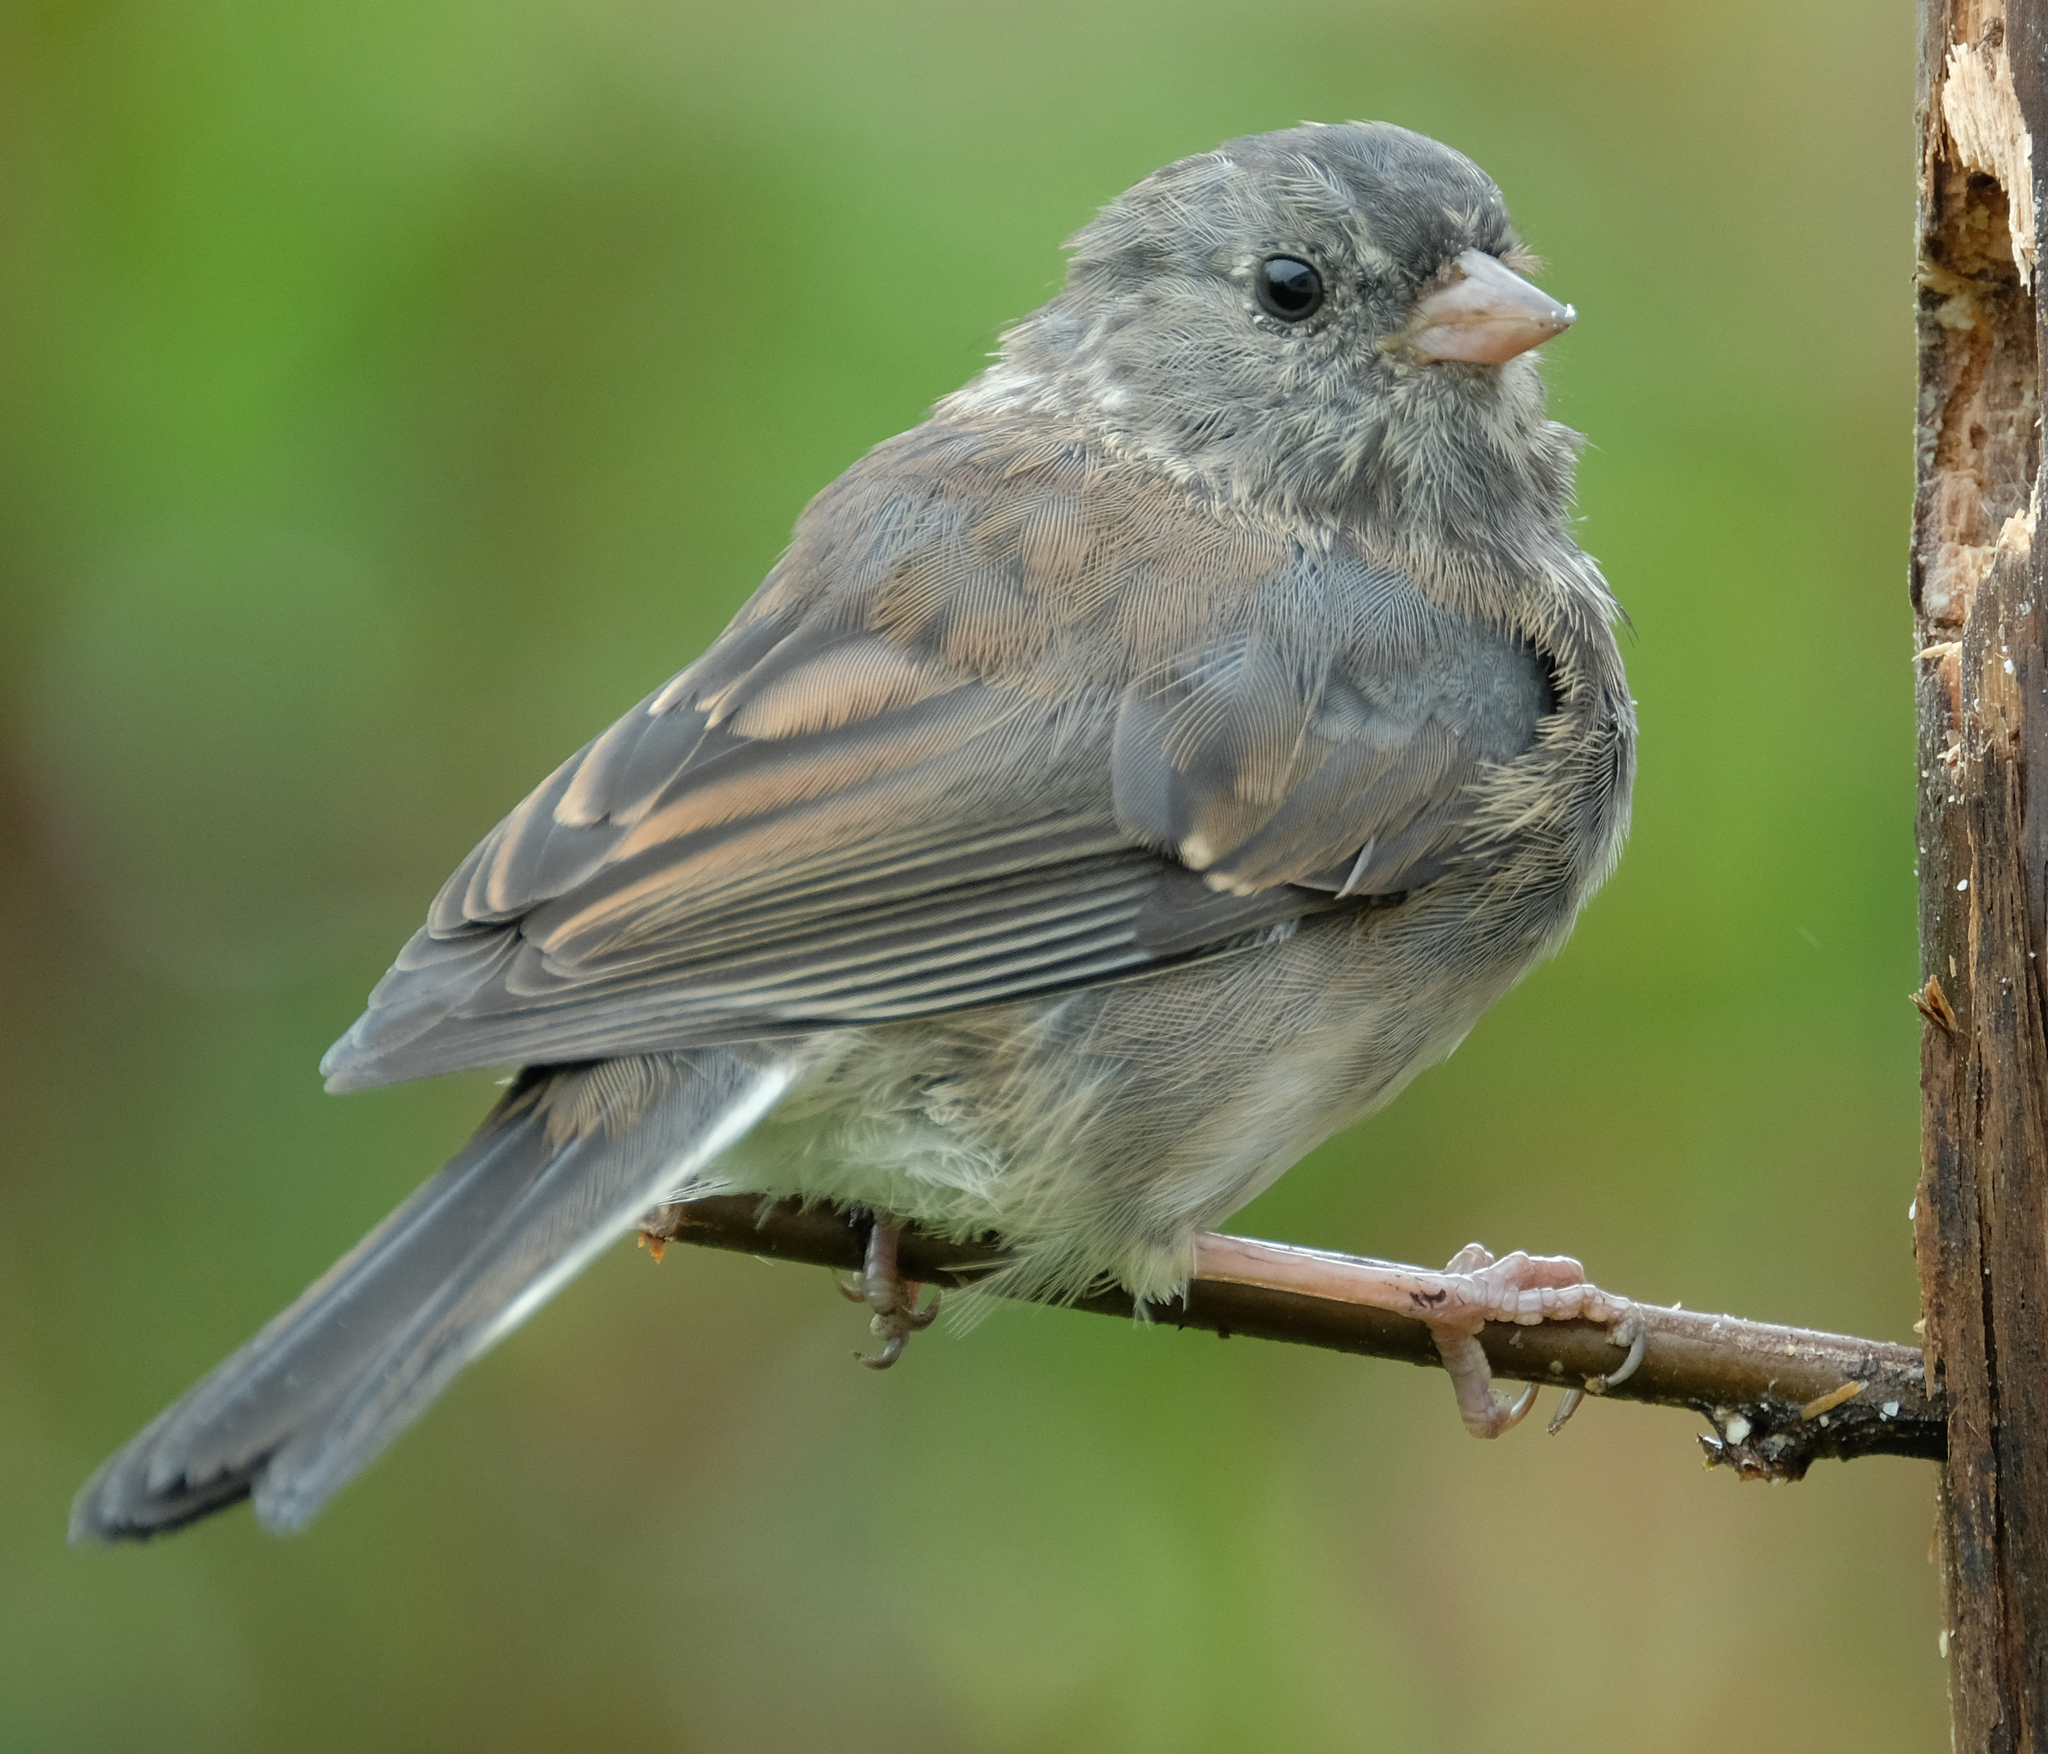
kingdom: Animalia
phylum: Chordata
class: Aves
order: Passeriformes
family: Passerellidae
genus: Junco
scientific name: Junco hyemalis
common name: Dark-eyed junco
